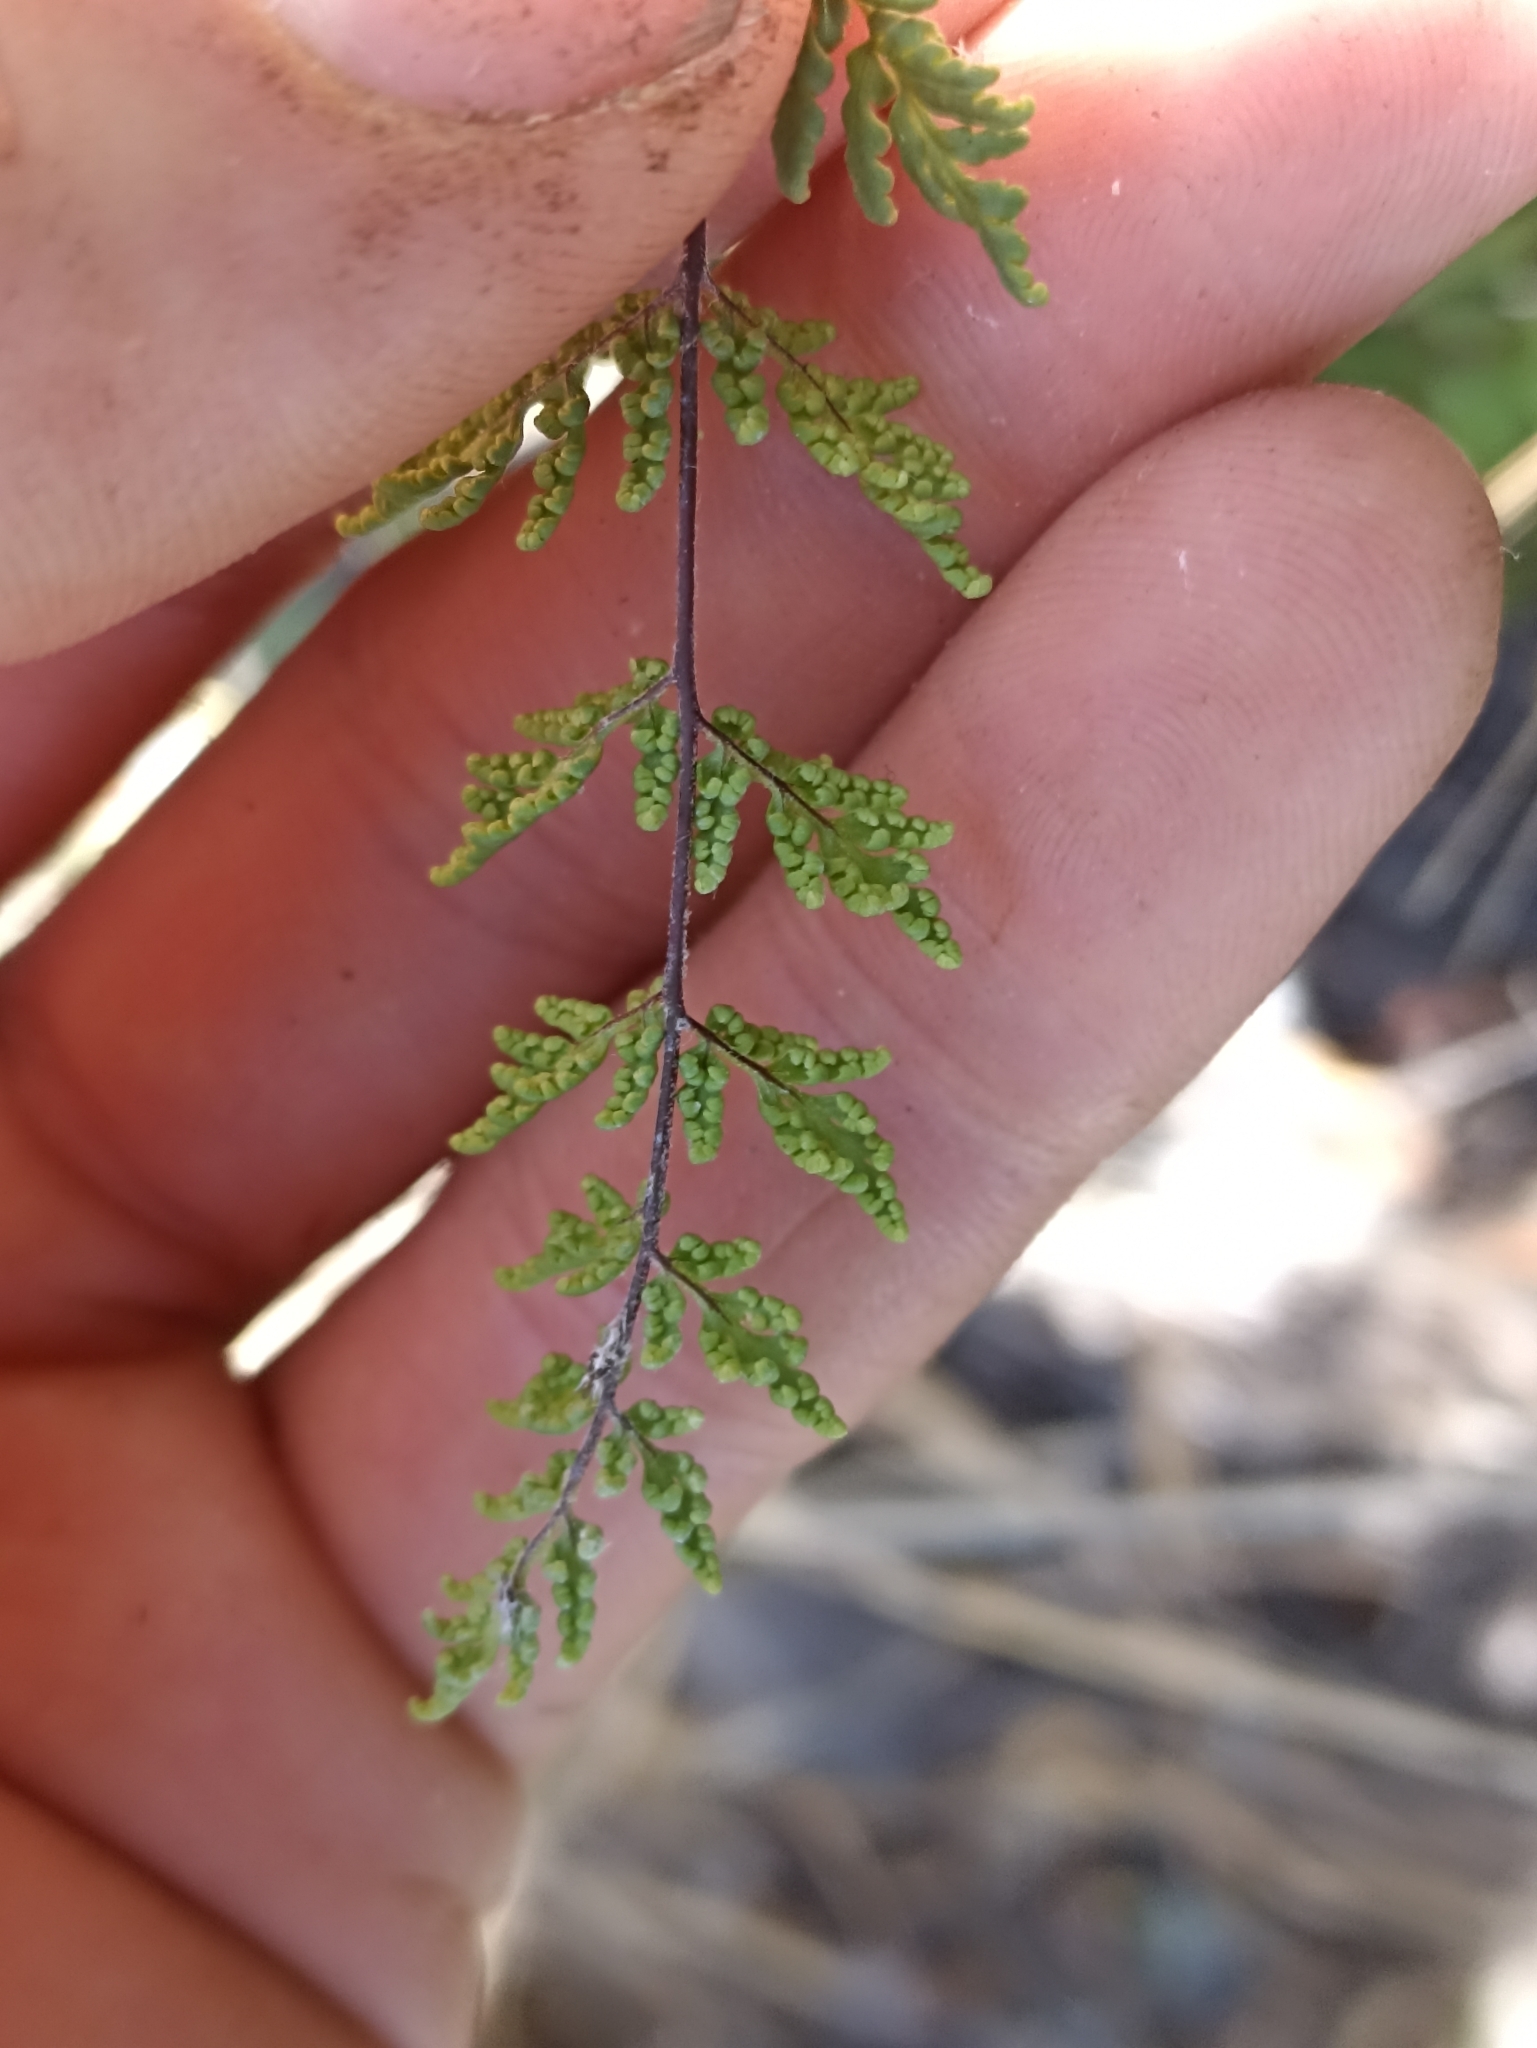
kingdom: Plantae
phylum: Tracheophyta
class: Polypodiopsida
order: Polypodiales
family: Pteridaceae
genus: Cheilanthes
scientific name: Cheilanthes sieberi
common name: Mulga fern
